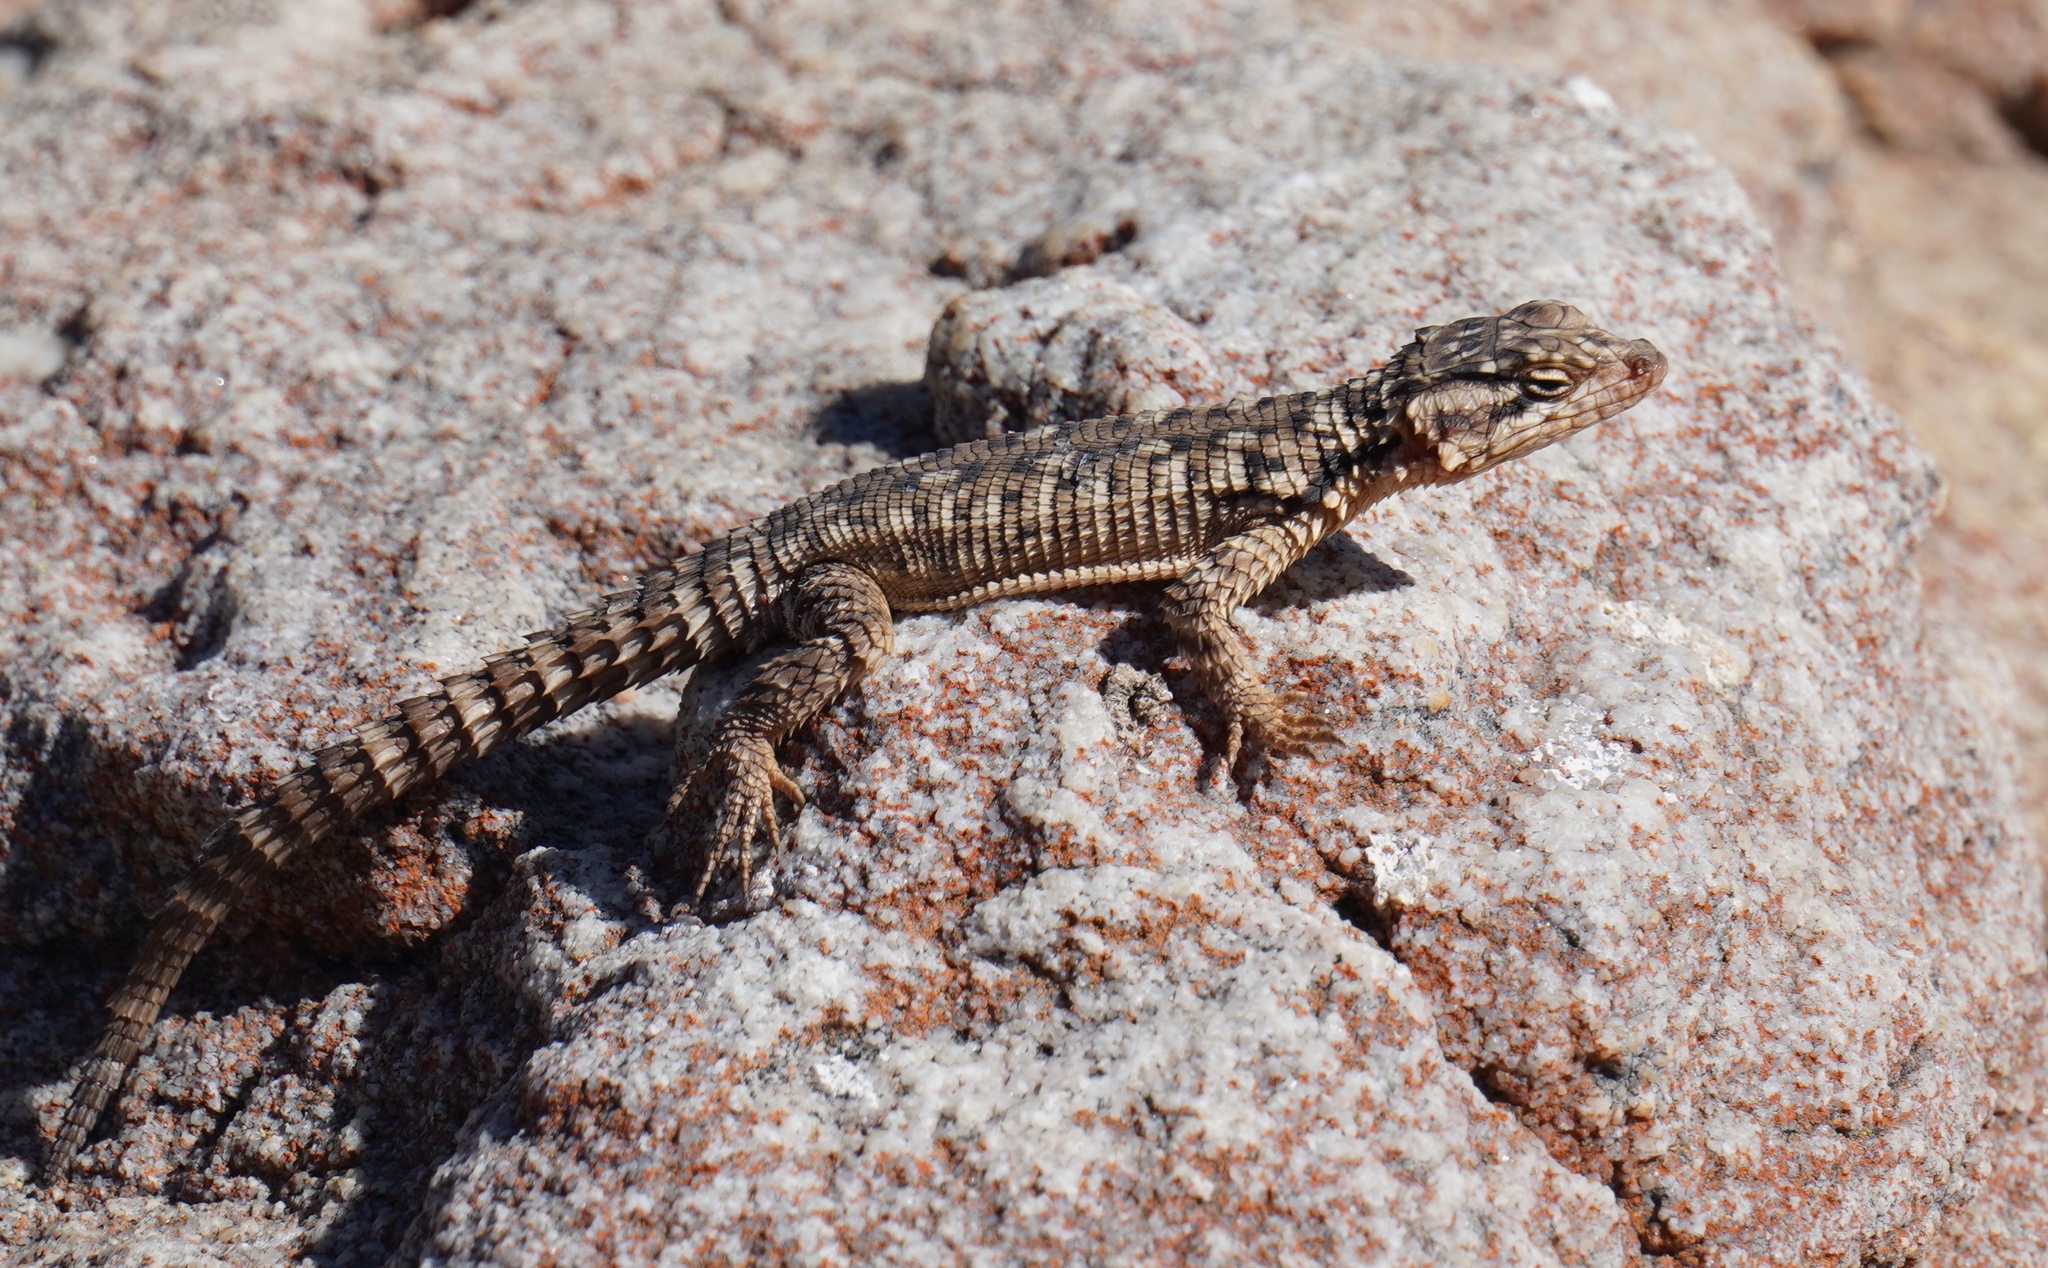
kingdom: Animalia
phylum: Chordata
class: Squamata
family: Cordylidae
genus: Karusasaurus
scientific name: Karusasaurus polyzonus
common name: Karoo girdled lizard
